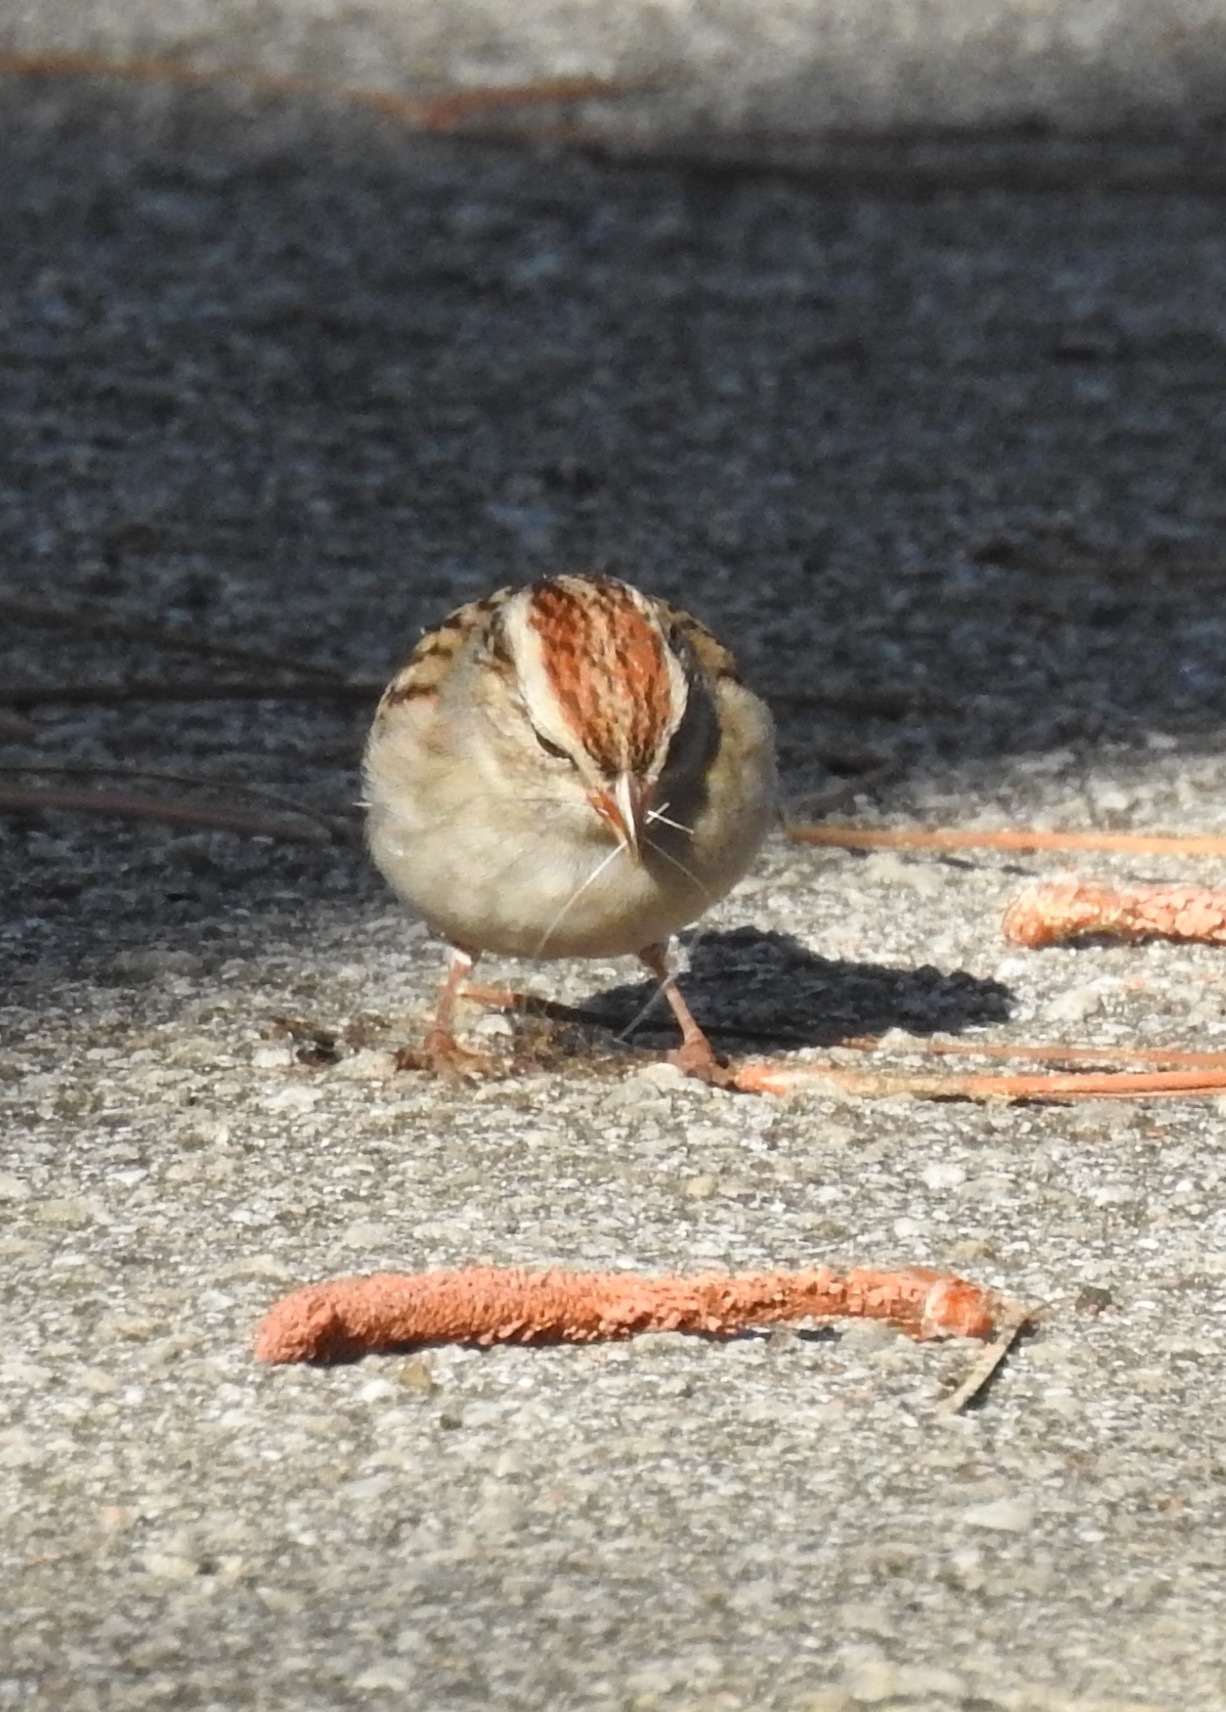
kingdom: Animalia
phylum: Chordata
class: Aves
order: Passeriformes
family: Passerellidae
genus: Spizella
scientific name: Spizella passerina
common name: Chipping sparrow
